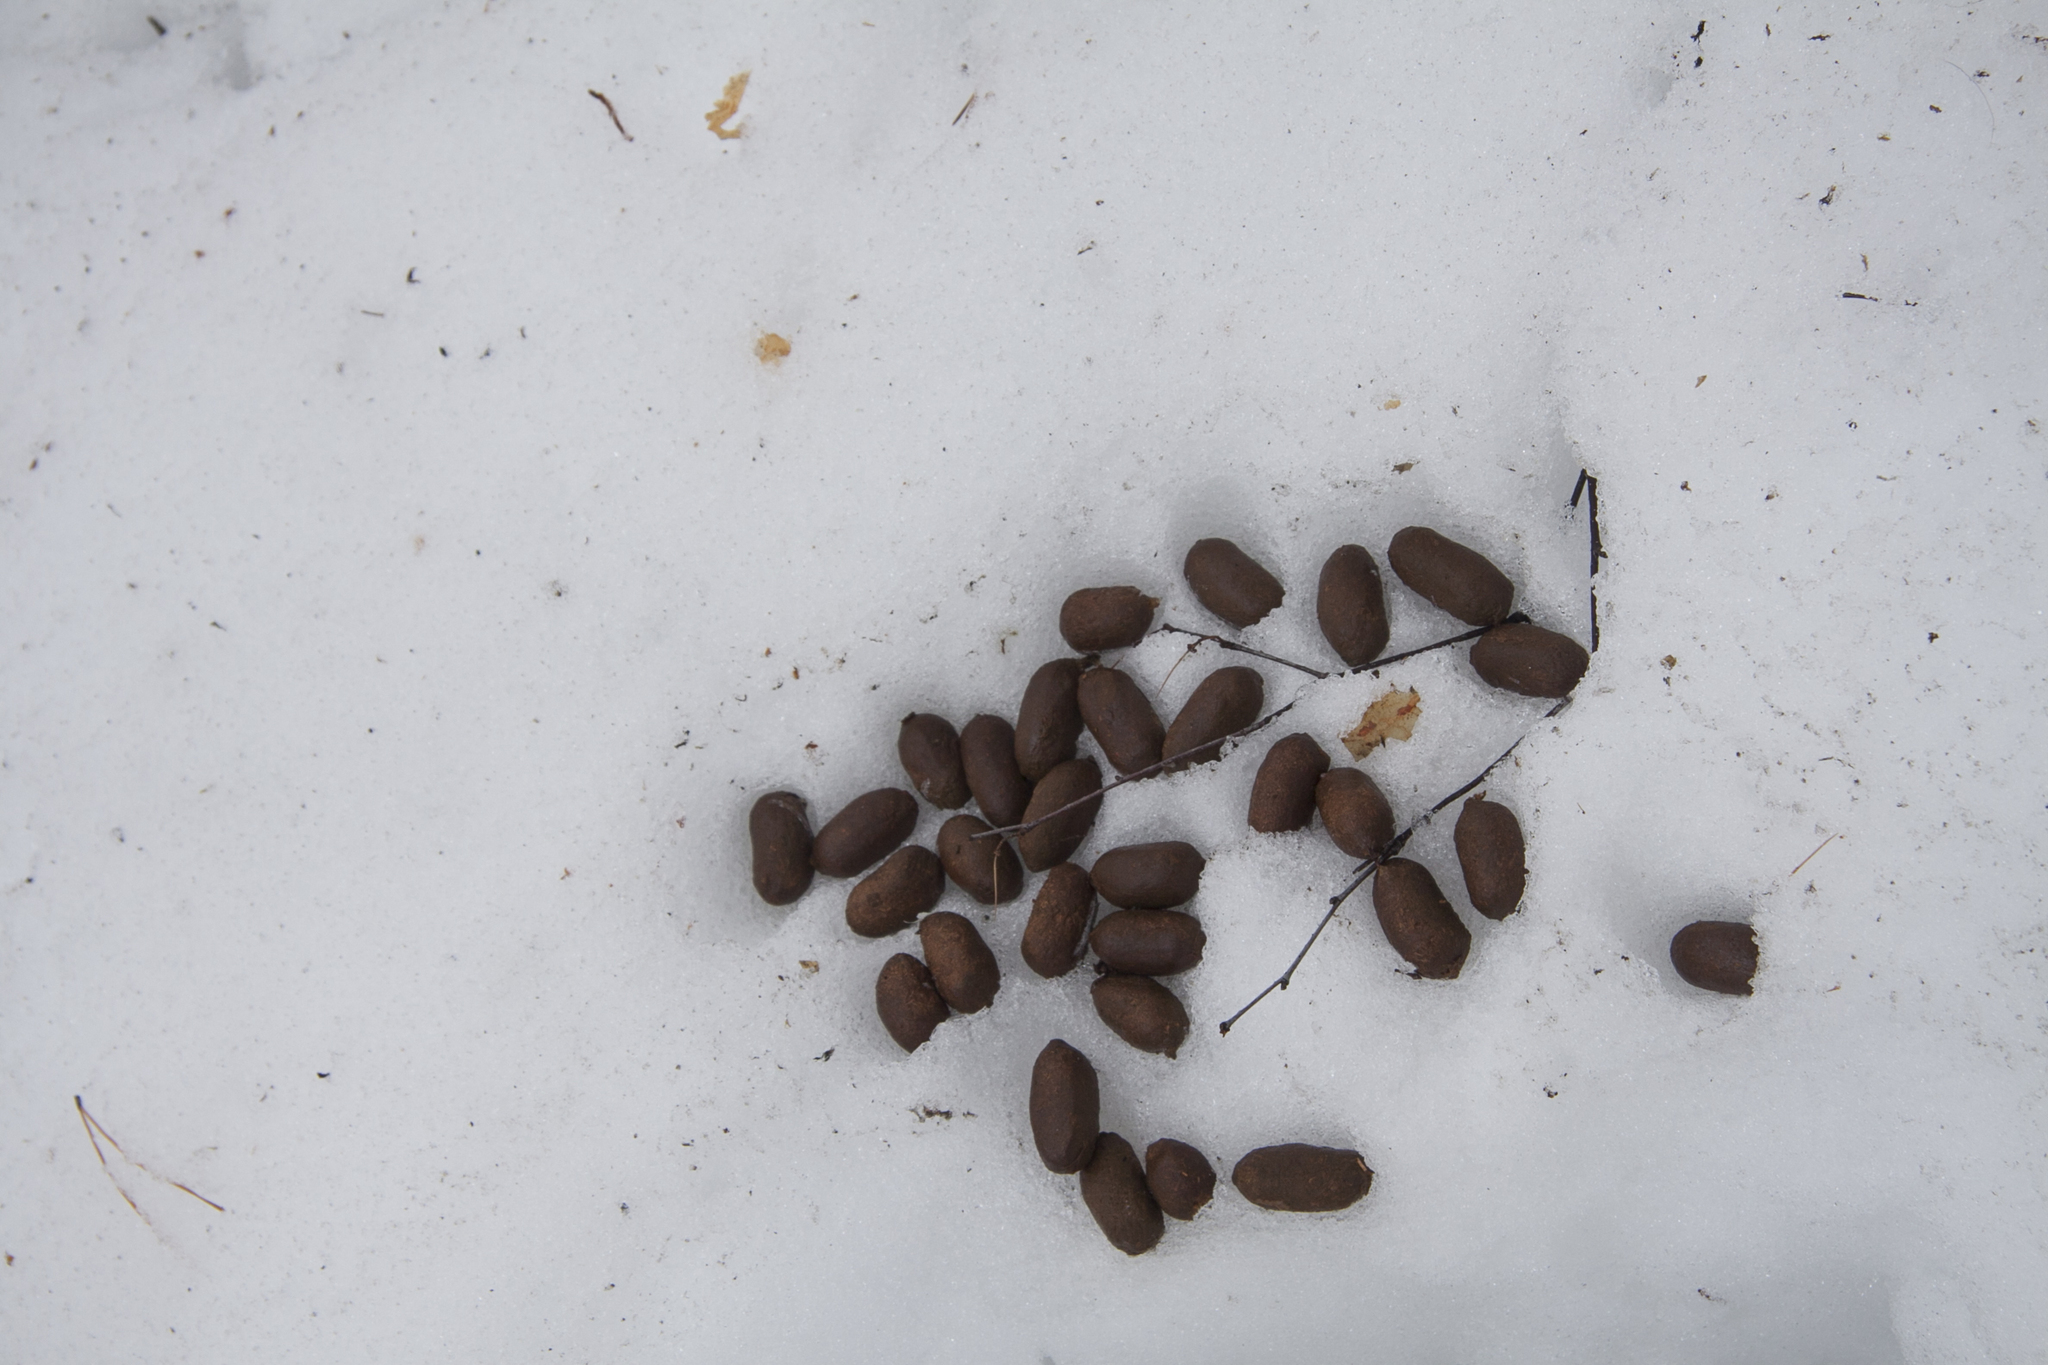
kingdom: Animalia
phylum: Chordata
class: Mammalia
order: Artiodactyla
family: Cervidae
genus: Alces
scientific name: Alces alces
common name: Moose
